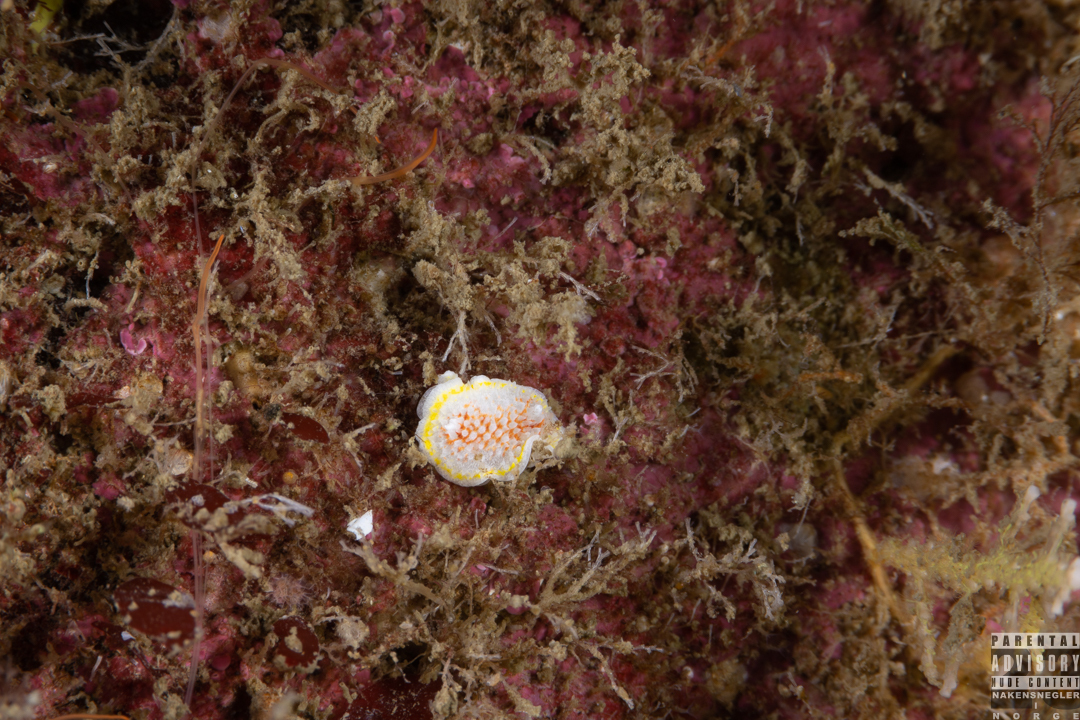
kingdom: Animalia
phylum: Mollusca
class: Gastropoda
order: Nudibranchia
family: Calycidorididae
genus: Diaphorodoris
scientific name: Diaphorodoris luteocincta
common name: Fried egg nudibranch
